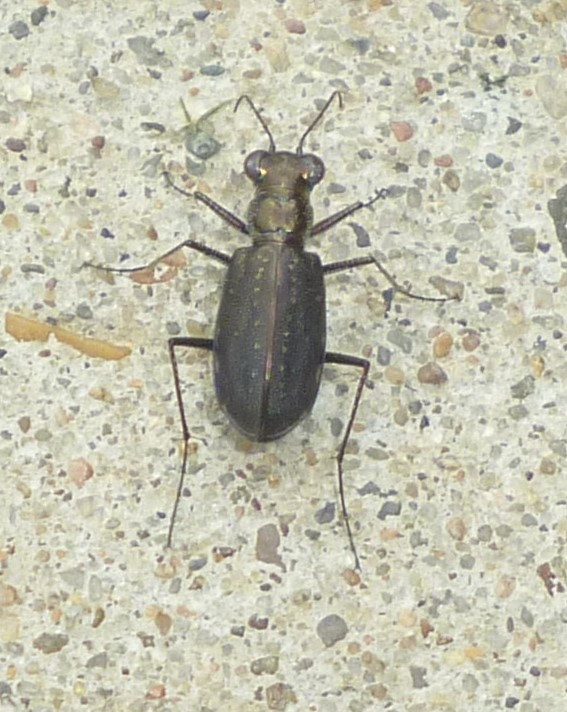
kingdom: Animalia
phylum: Arthropoda
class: Insecta
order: Coleoptera
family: Carabidae
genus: Cicindela
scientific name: Cicindela punctulata
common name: Punctured tiger beetle
